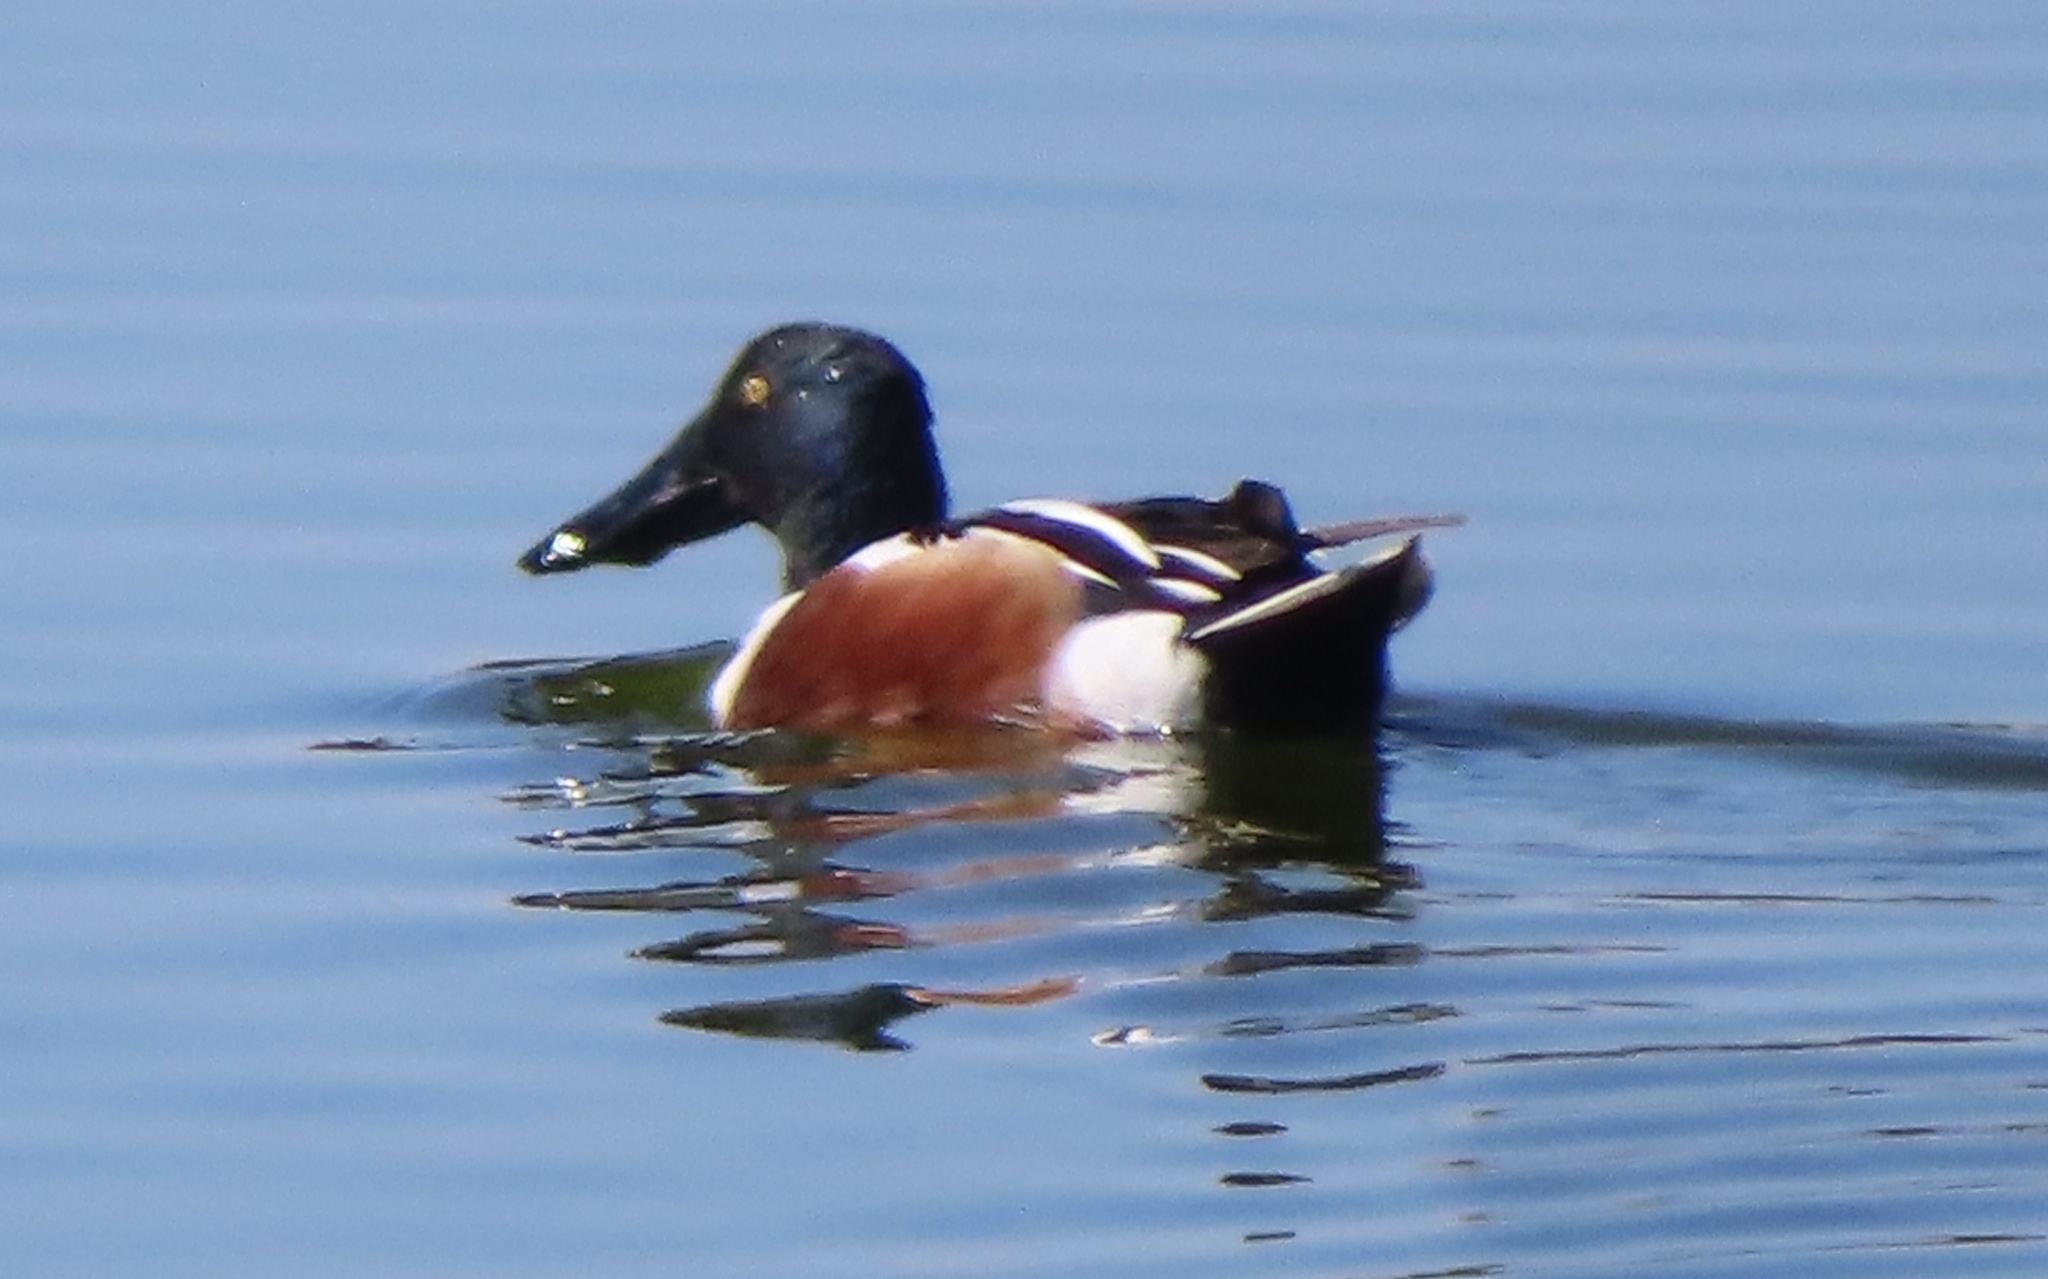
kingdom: Animalia
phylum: Chordata
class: Aves
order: Anseriformes
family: Anatidae
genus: Spatula
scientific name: Spatula clypeata
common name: Northern shoveler
